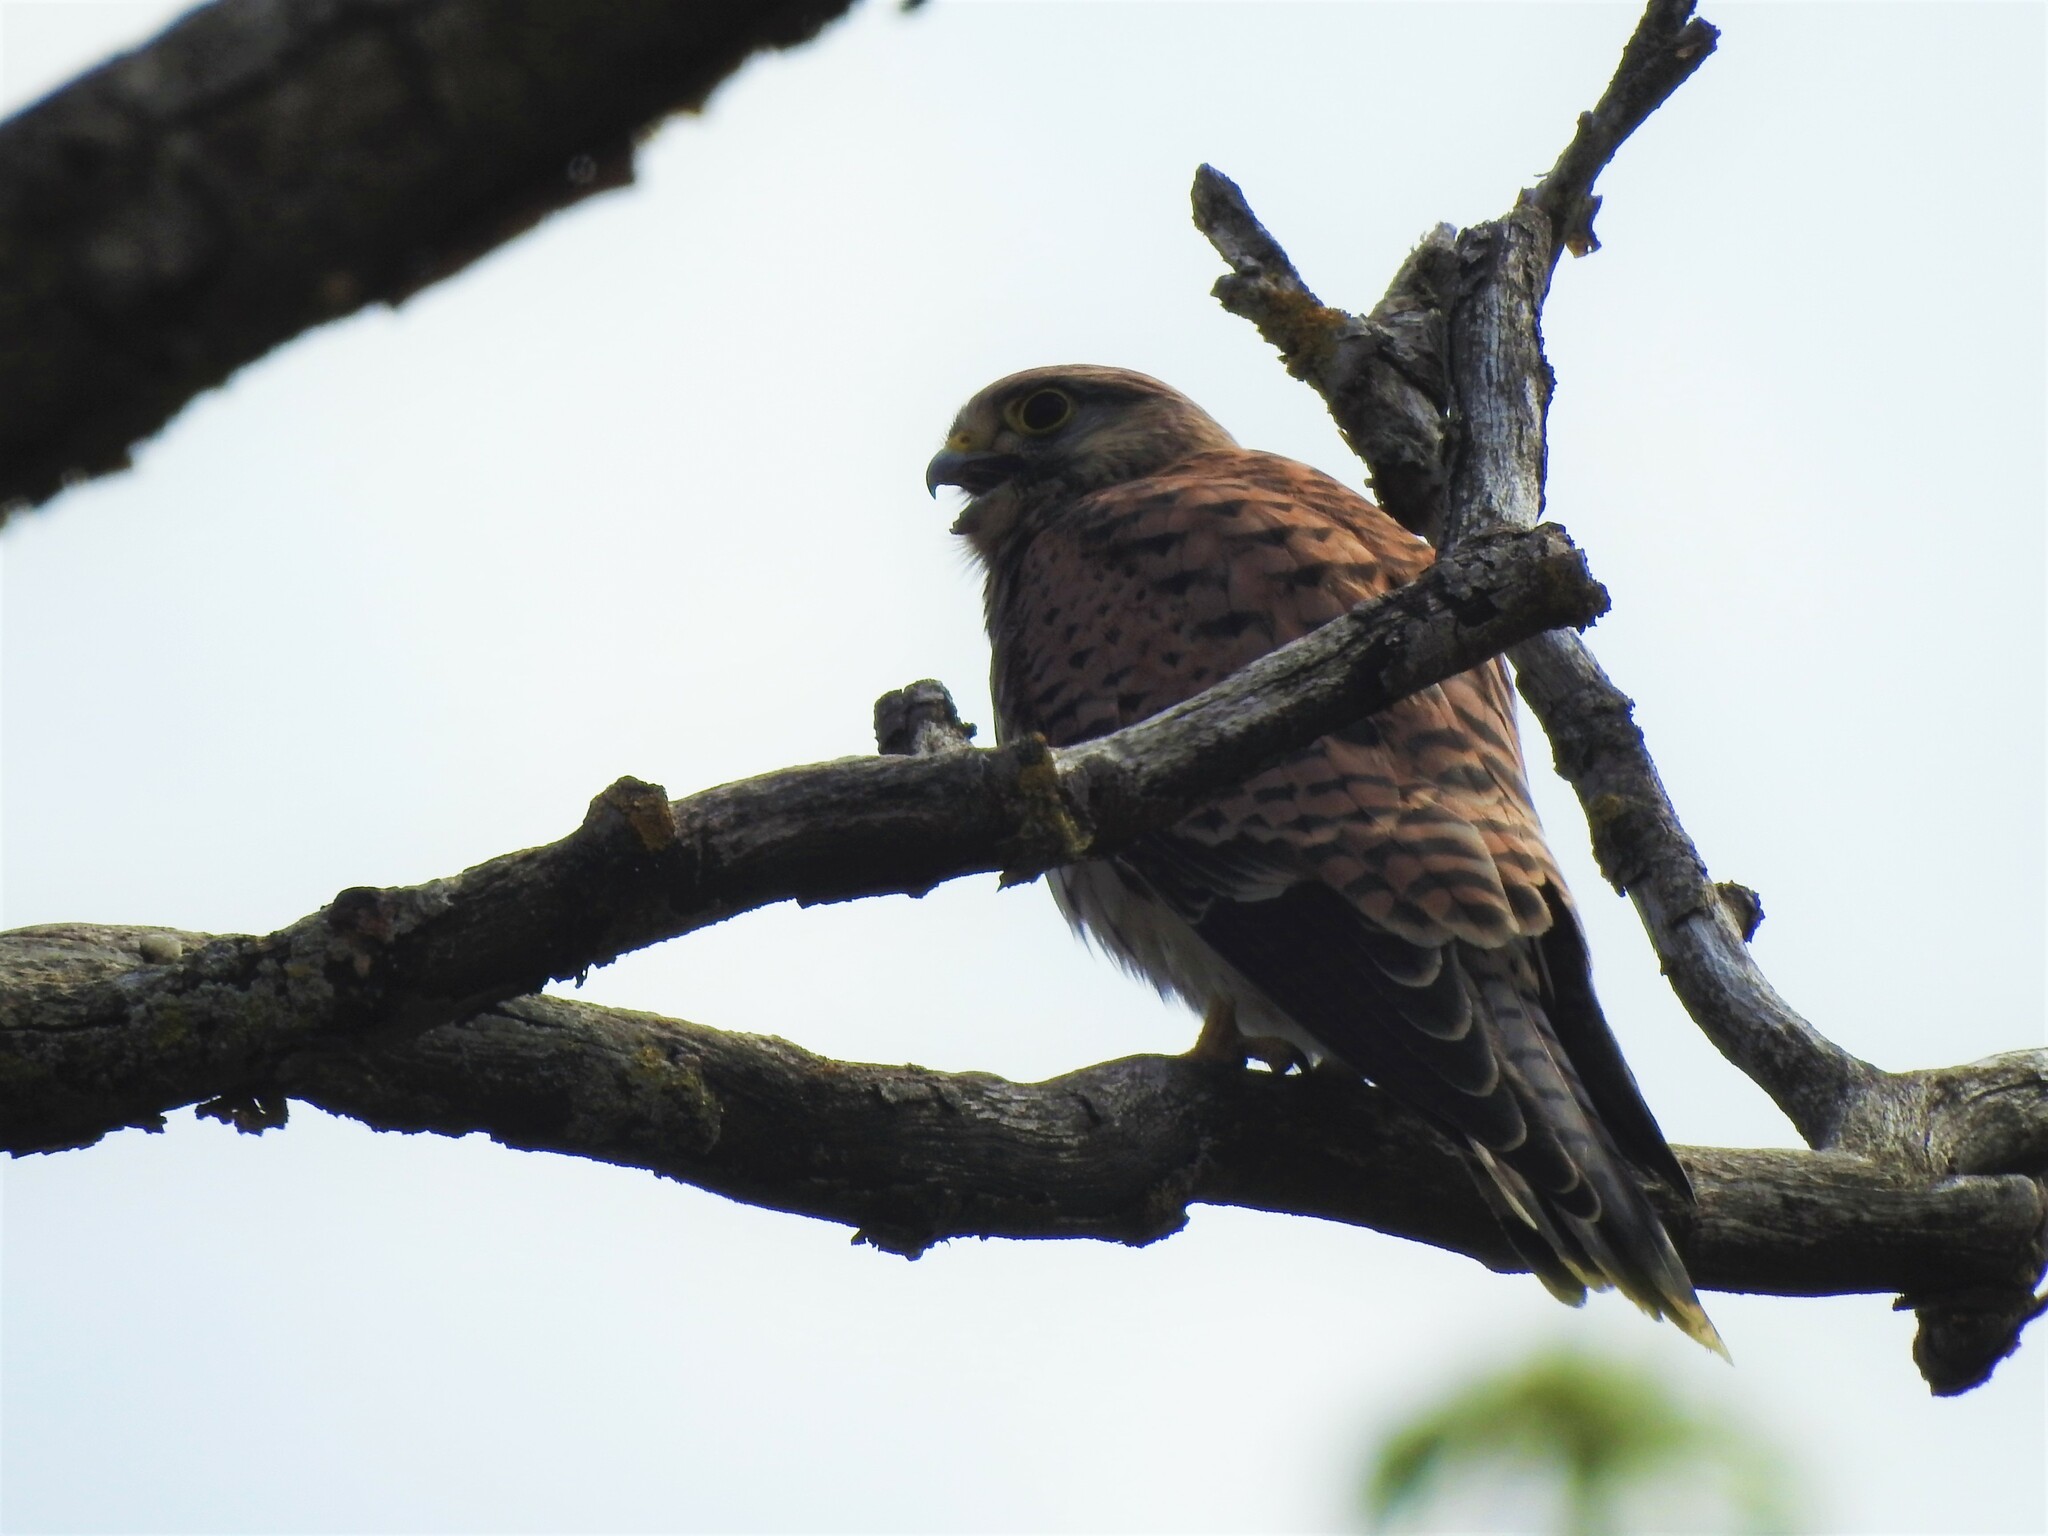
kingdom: Animalia
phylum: Chordata
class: Aves
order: Falconiformes
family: Falconidae
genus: Falco
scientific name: Falco tinnunculus
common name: Common kestrel
